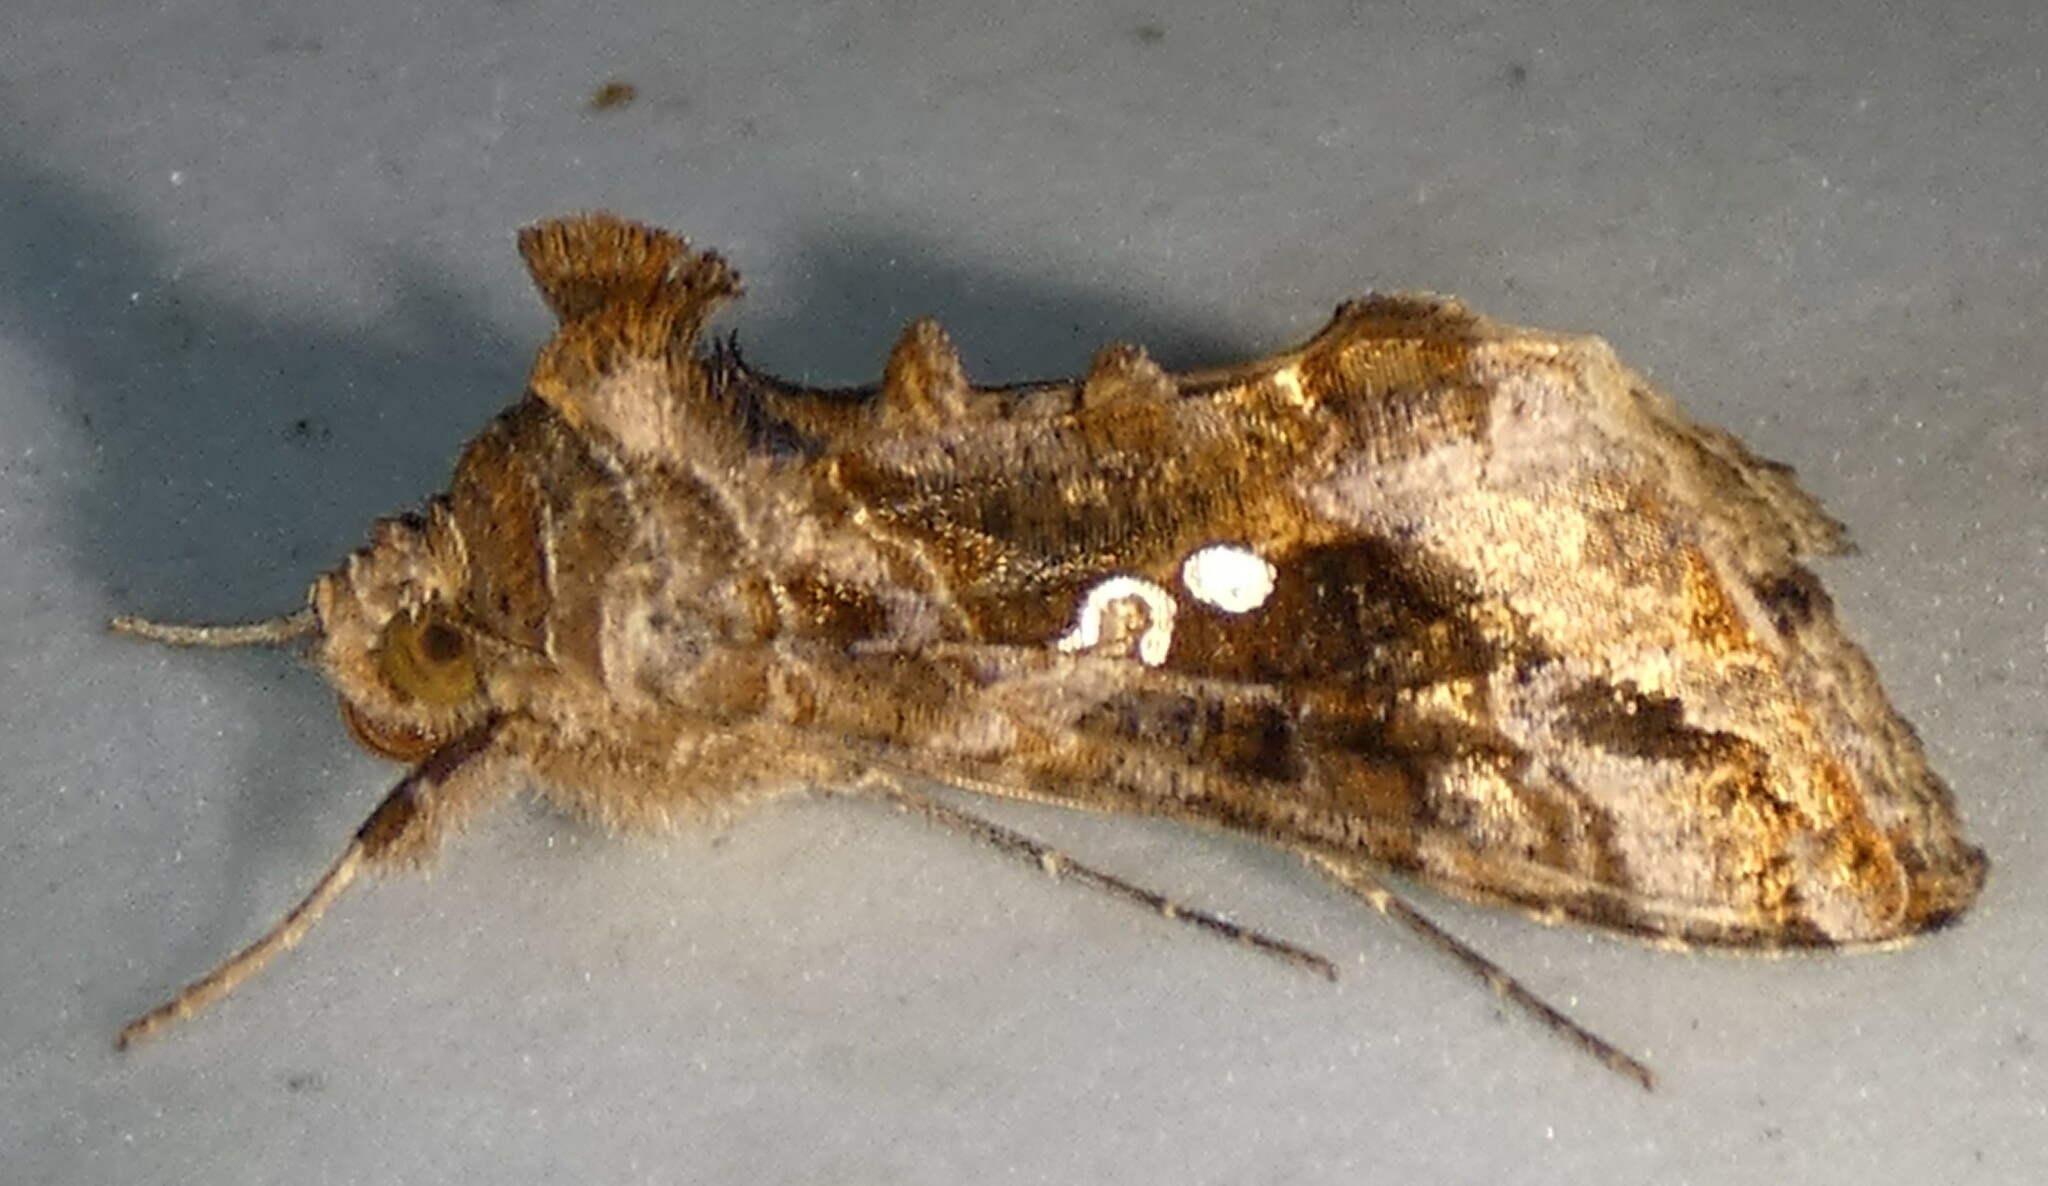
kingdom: Animalia
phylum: Arthropoda
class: Insecta
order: Lepidoptera
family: Noctuidae
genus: Chrysodeixis
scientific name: Chrysodeixis includens
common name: Cutworm moth
